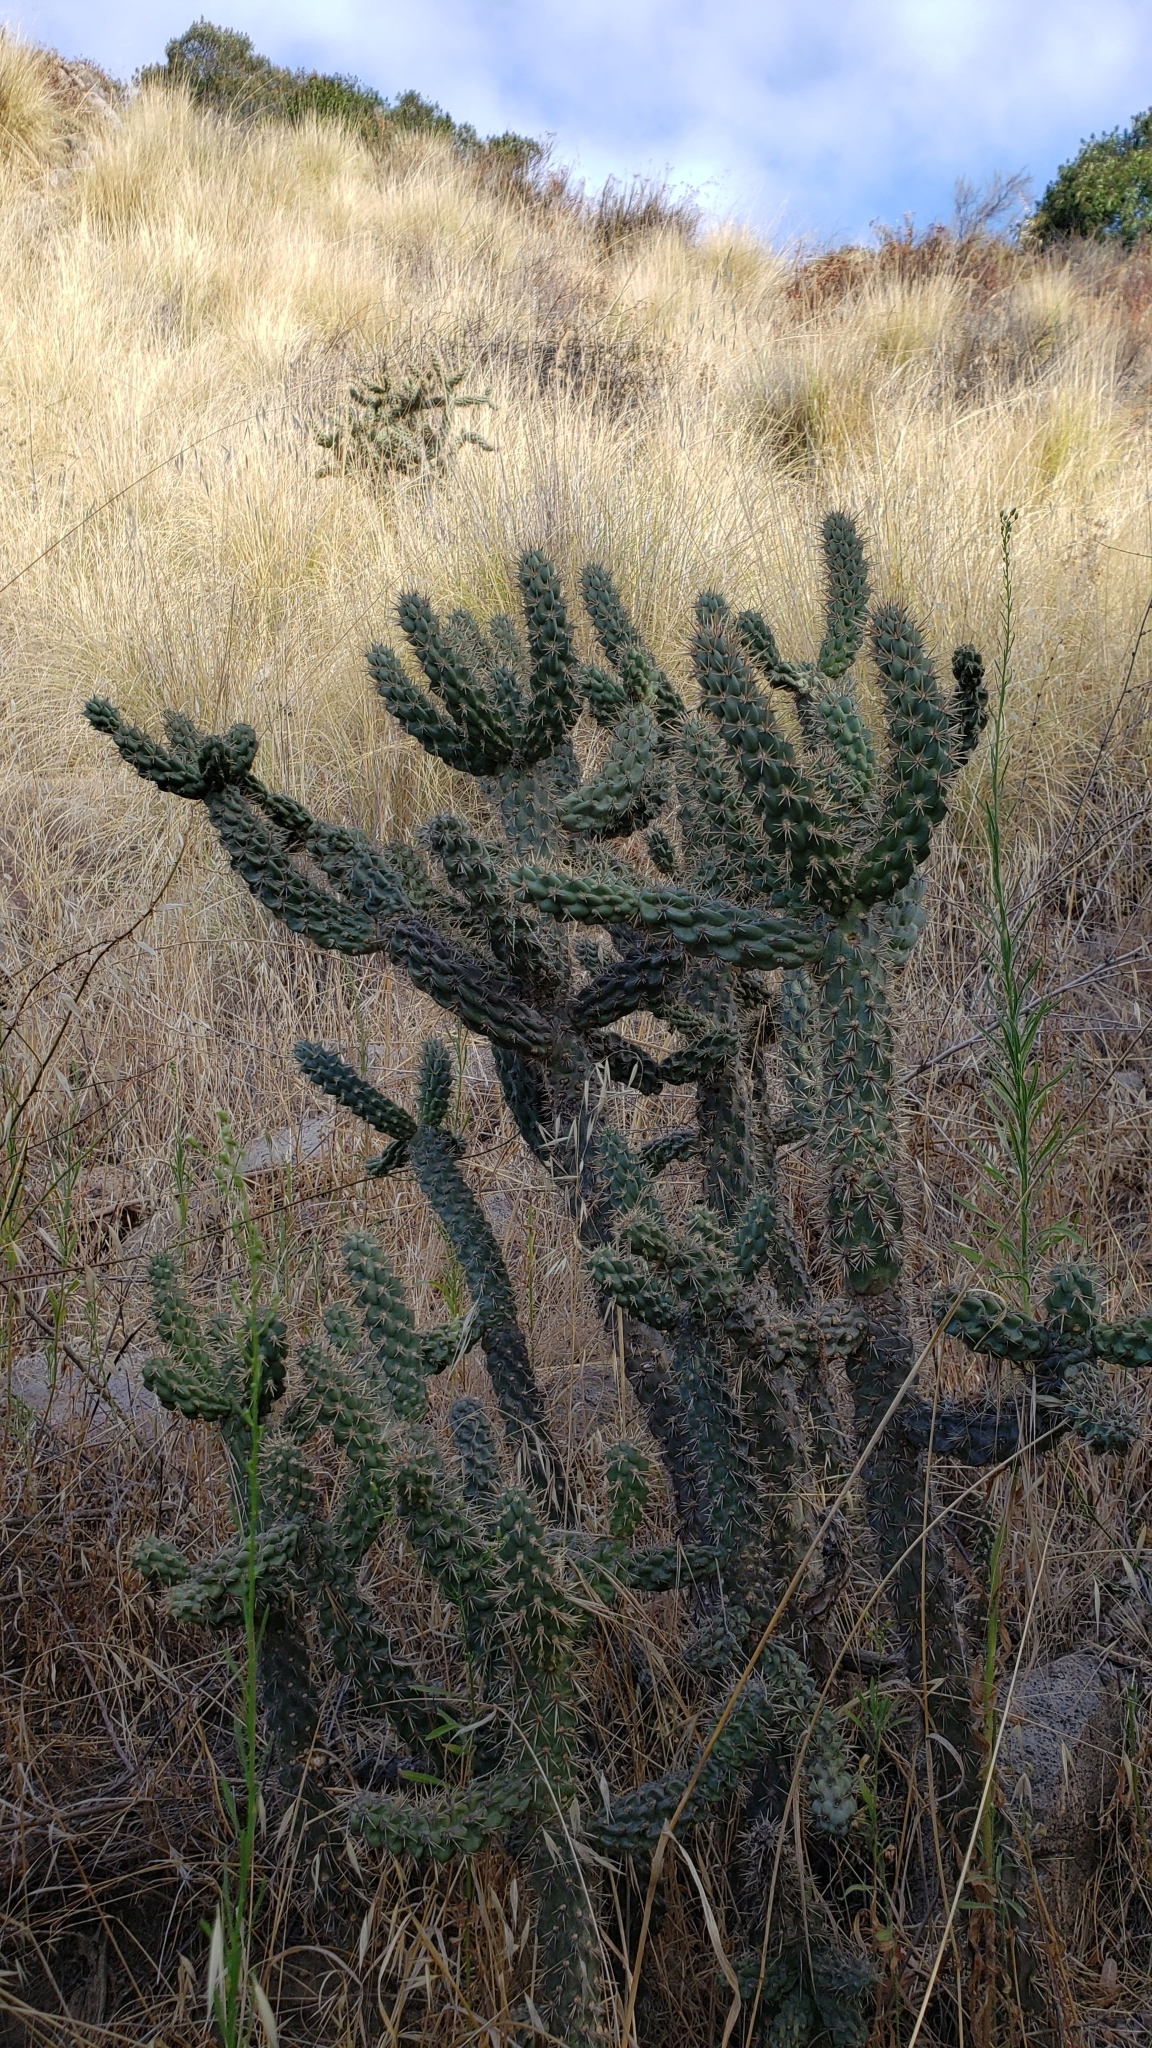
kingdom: Plantae
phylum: Tracheophyta
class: Magnoliopsida
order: Caryophyllales
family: Cactaceae
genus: Cylindropuntia
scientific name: Cylindropuntia prolifera
